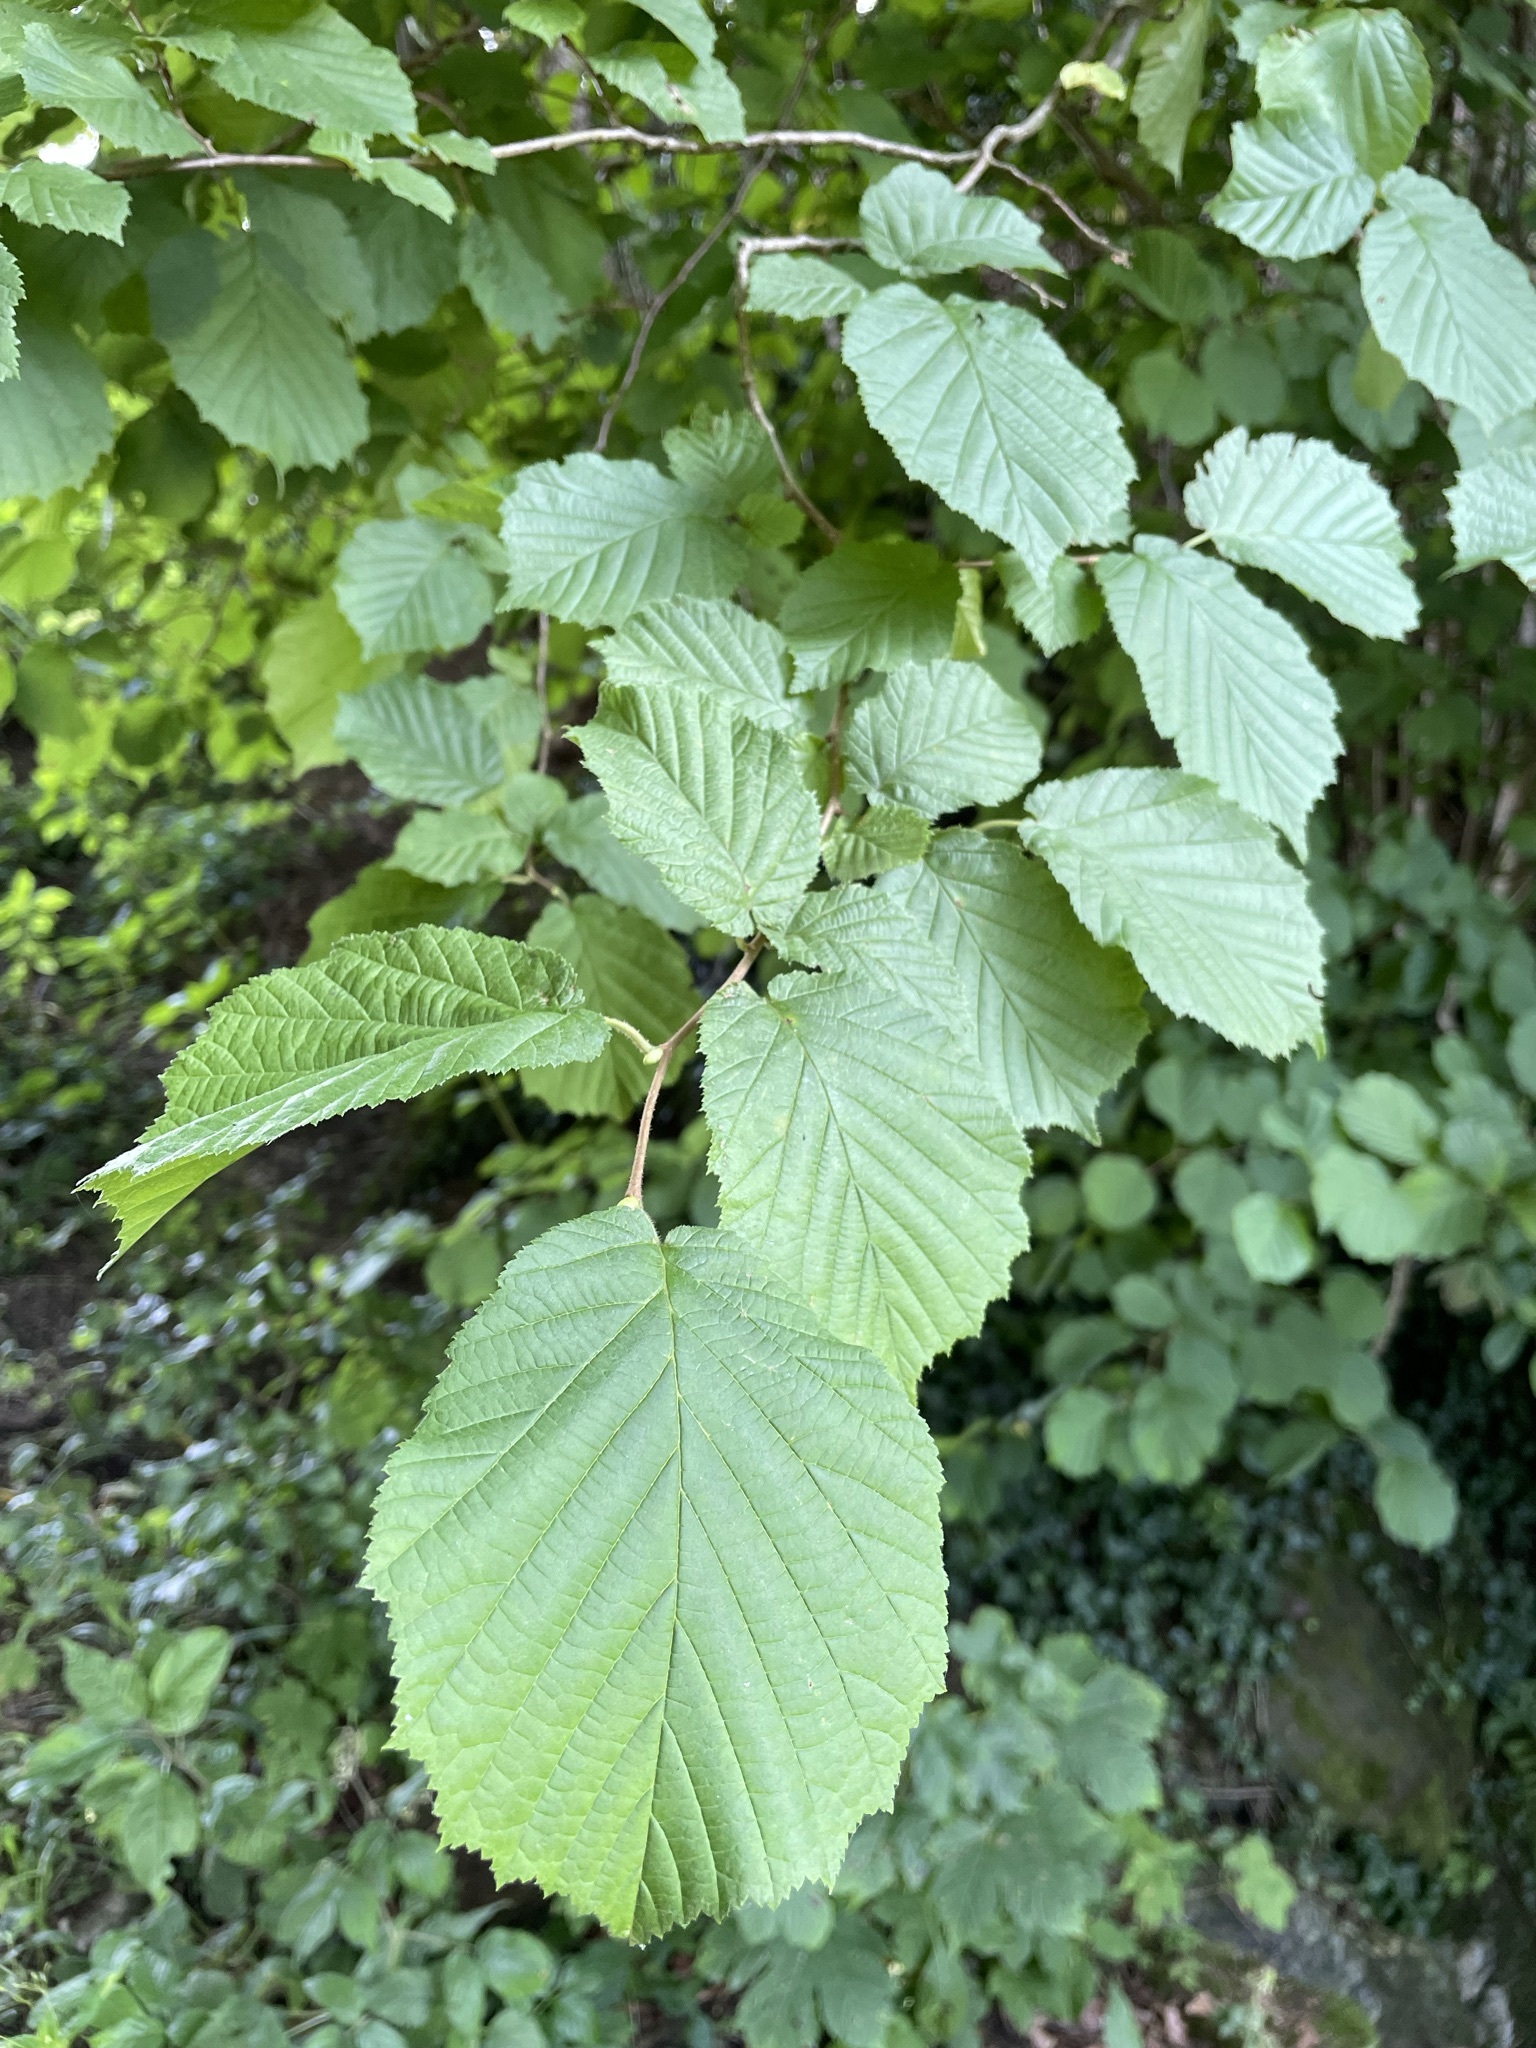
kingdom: Plantae
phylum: Tracheophyta
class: Magnoliopsida
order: Fagales
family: Betulaceae
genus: Corylus
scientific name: Corylus avellana
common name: European hazel
